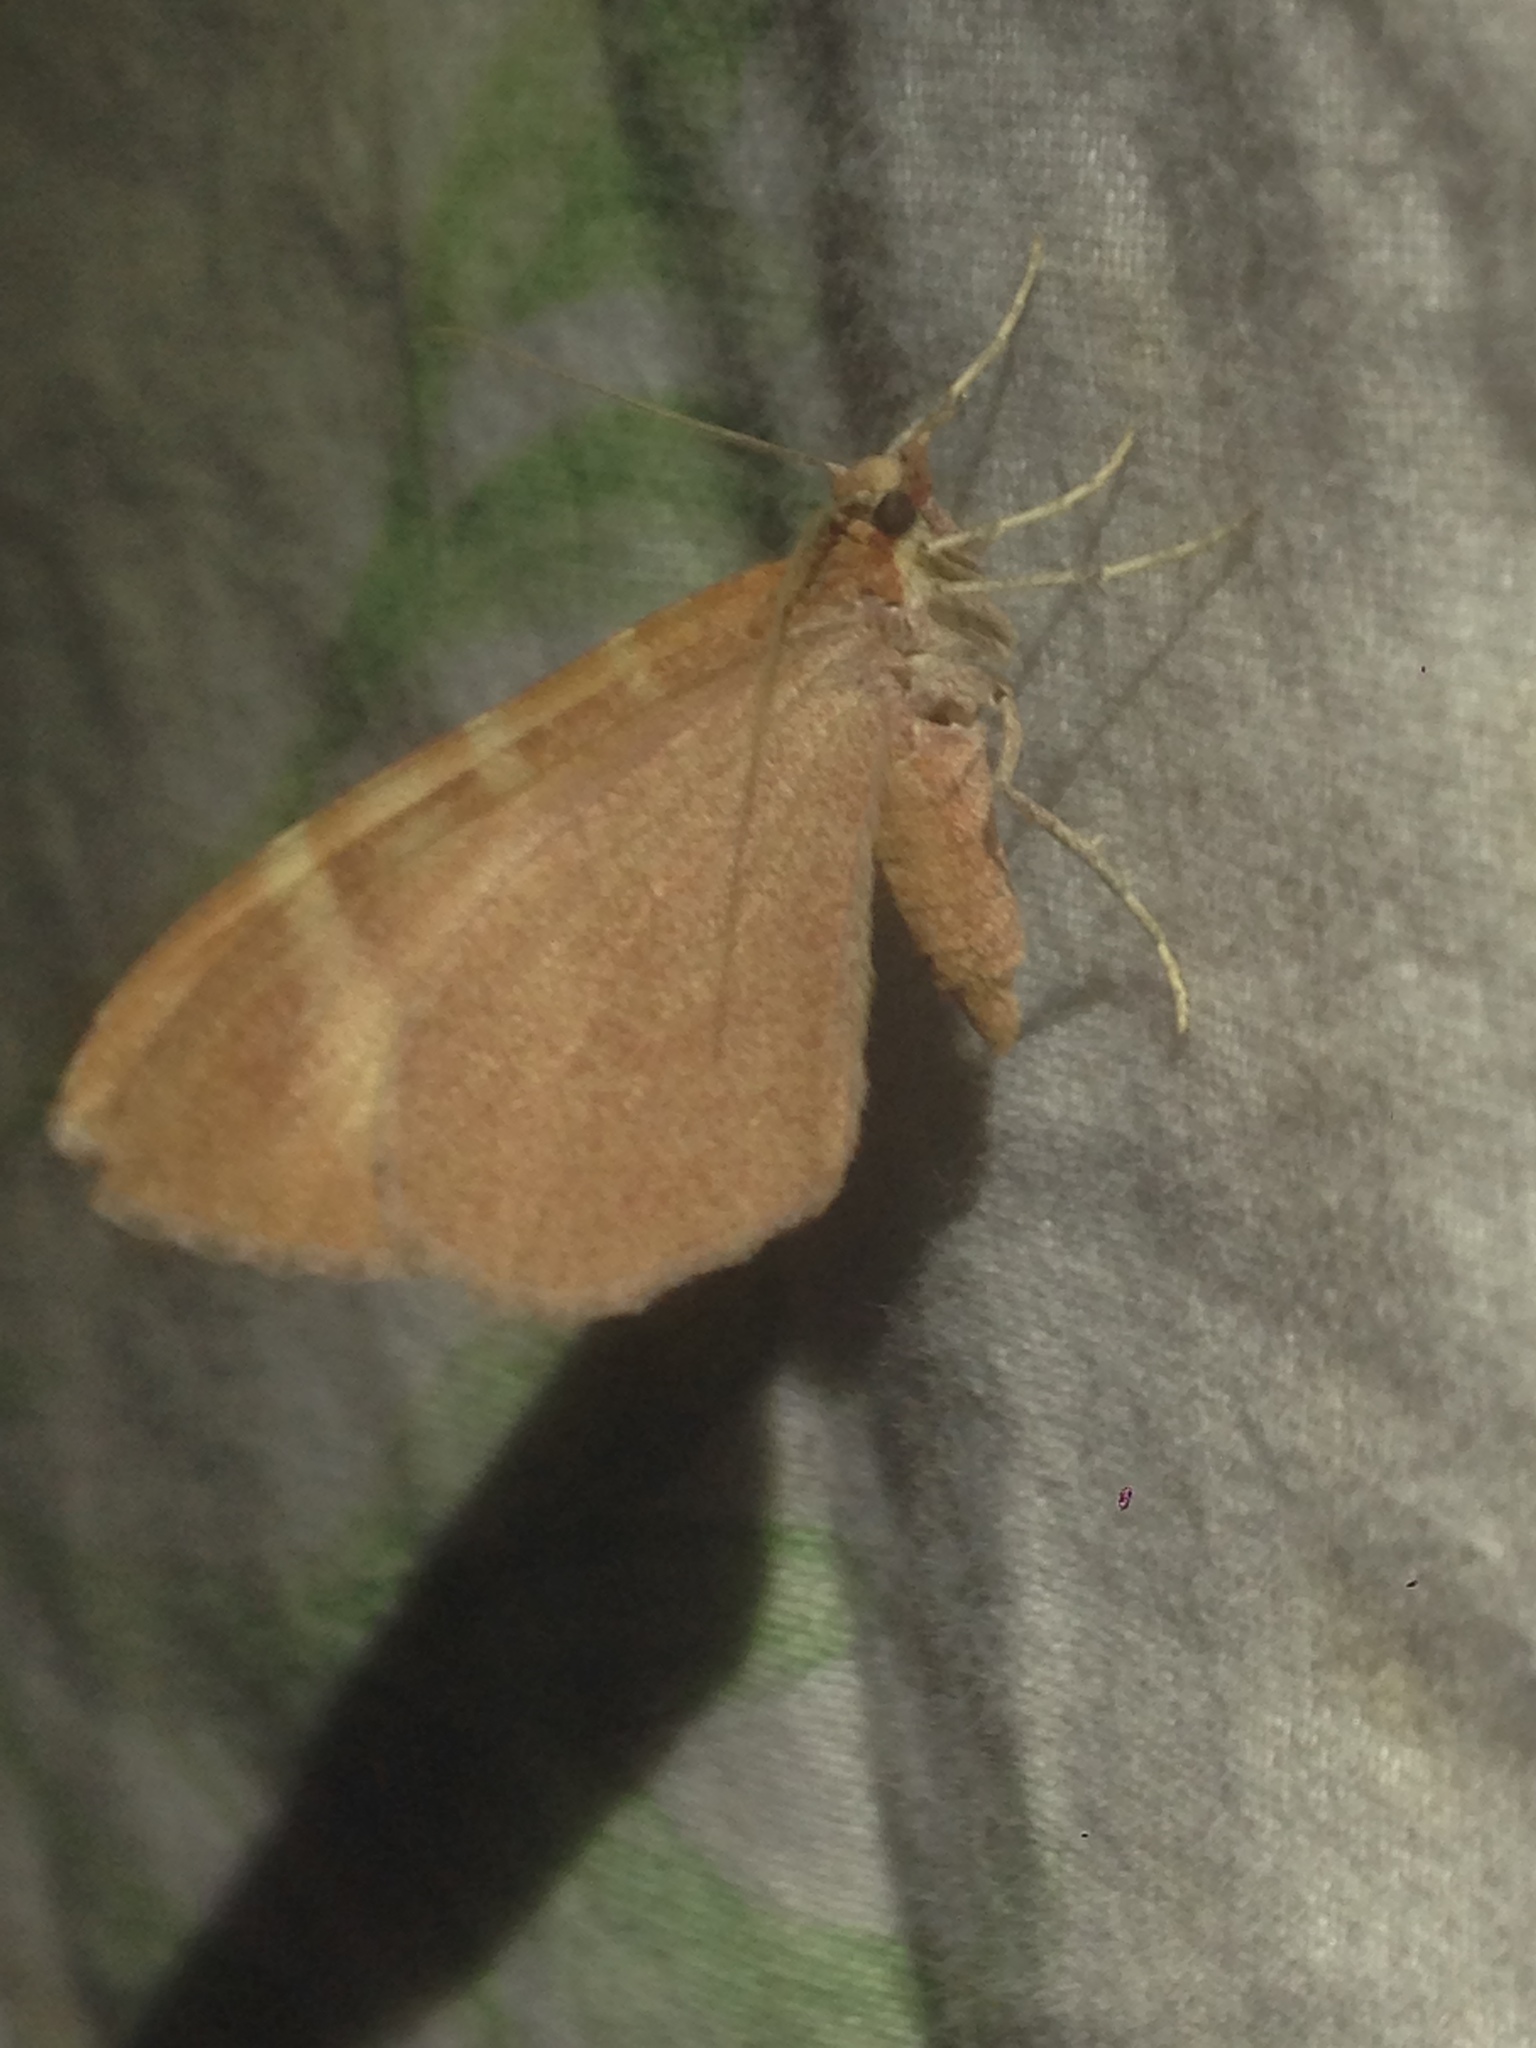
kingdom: Animalia
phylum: Arthropoda
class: Insecta
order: Lepidoptera
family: Geometridae
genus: Stamnodes
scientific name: Stamnodes ululata
